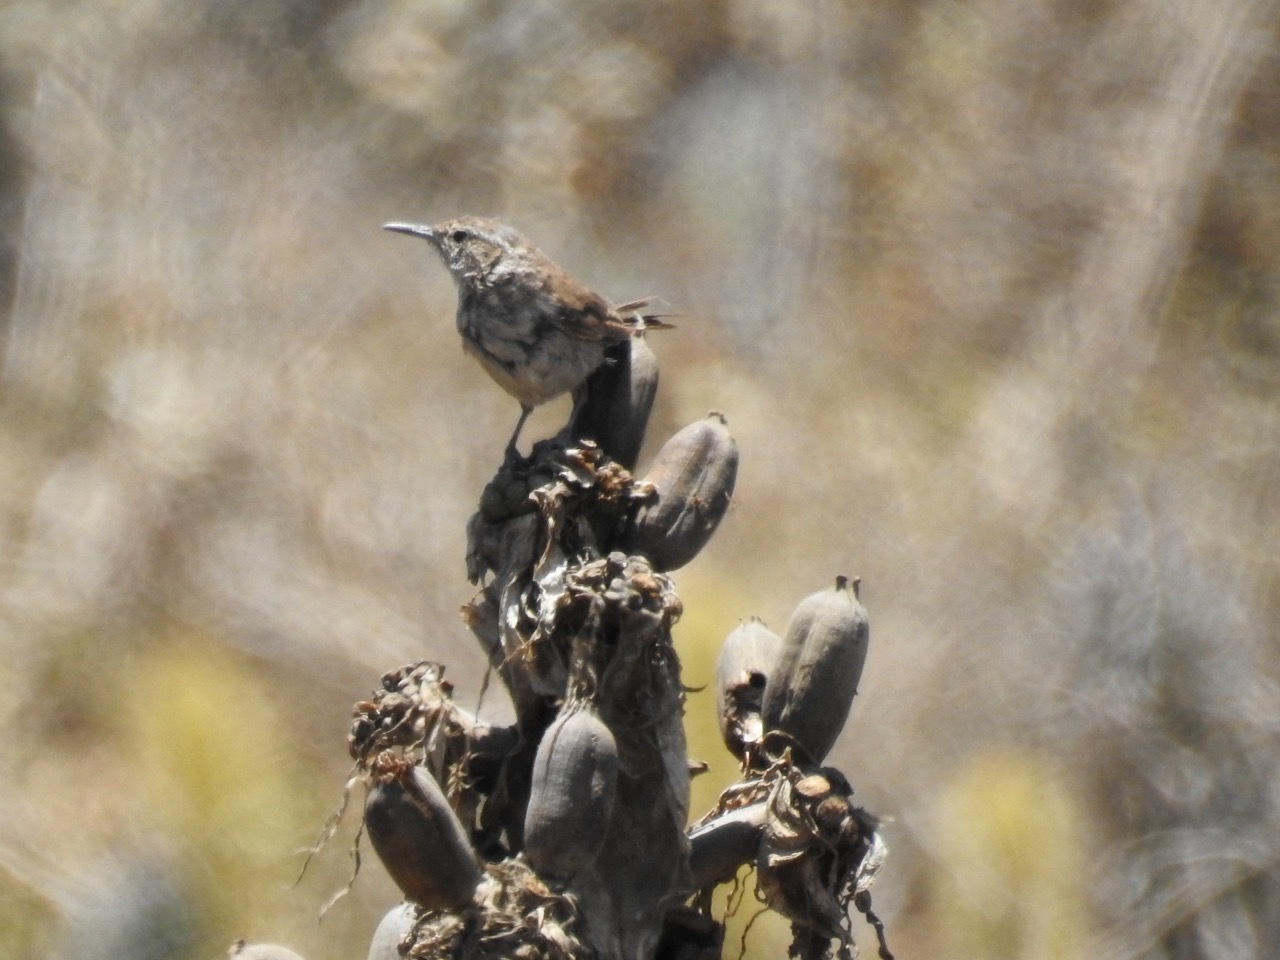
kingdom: Animalia
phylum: Chordata
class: Aves
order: Passeriformes
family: Troglodytidae
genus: Thryomanes
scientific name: Thryomanes bewickii
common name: Bewick's wren
